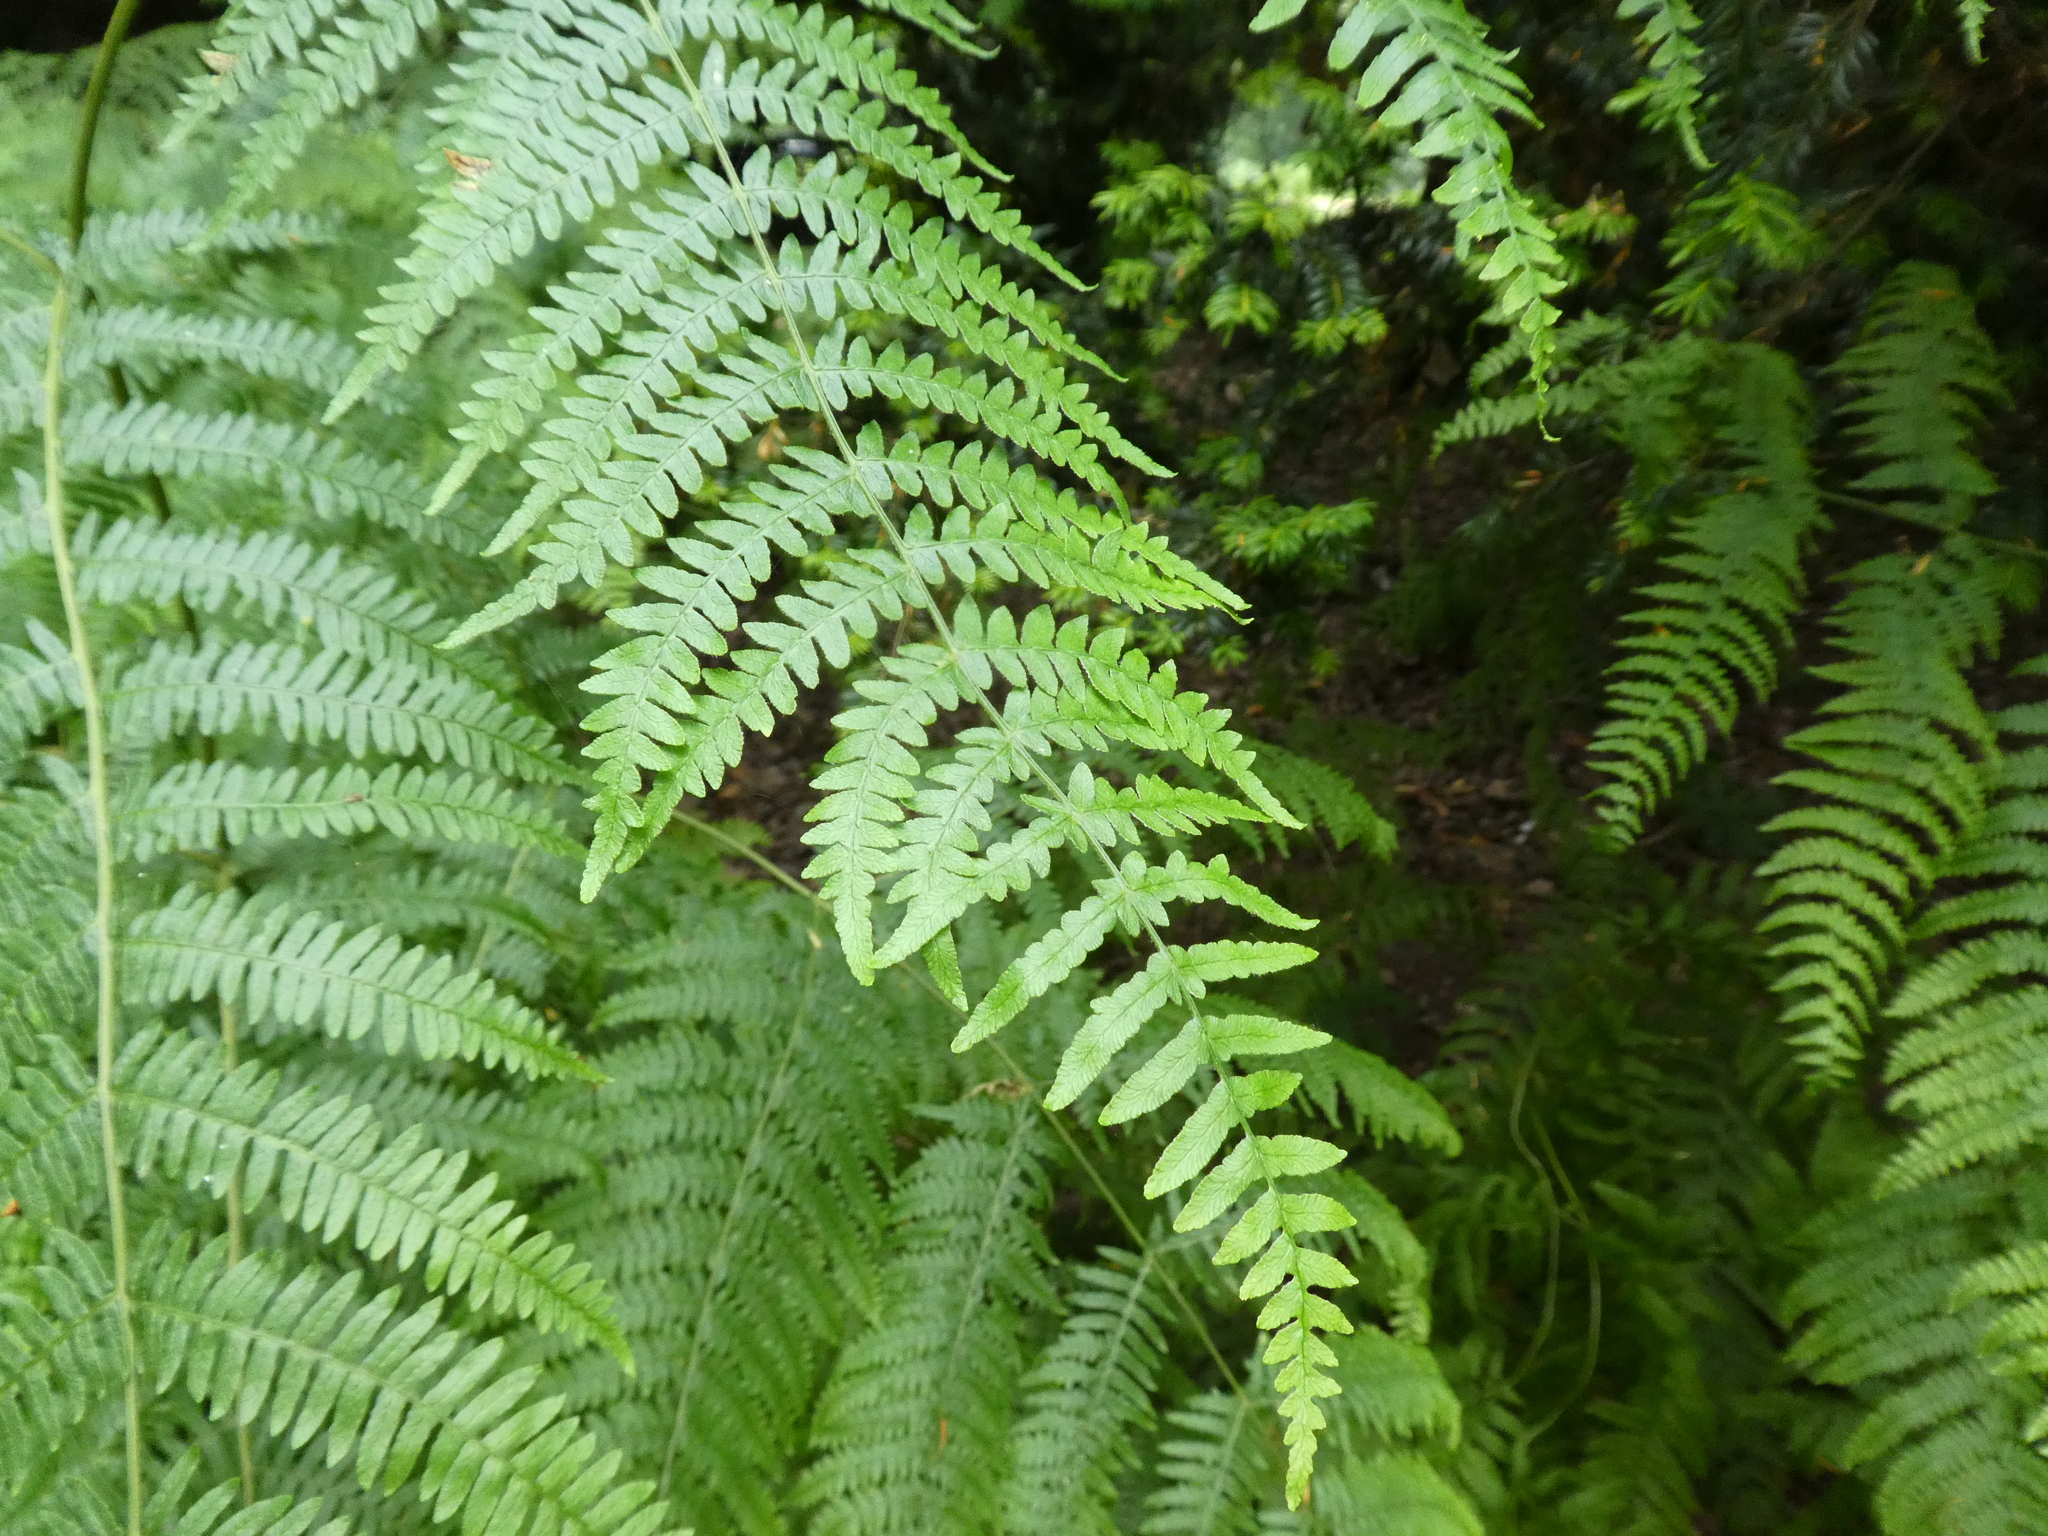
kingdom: Plantae
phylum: Tracheophyta
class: Polypodiopsida
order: Polypodiales
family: Dennstaedtiaceae
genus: Pteridium
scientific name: Pteridium aquilinum
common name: Bracken
